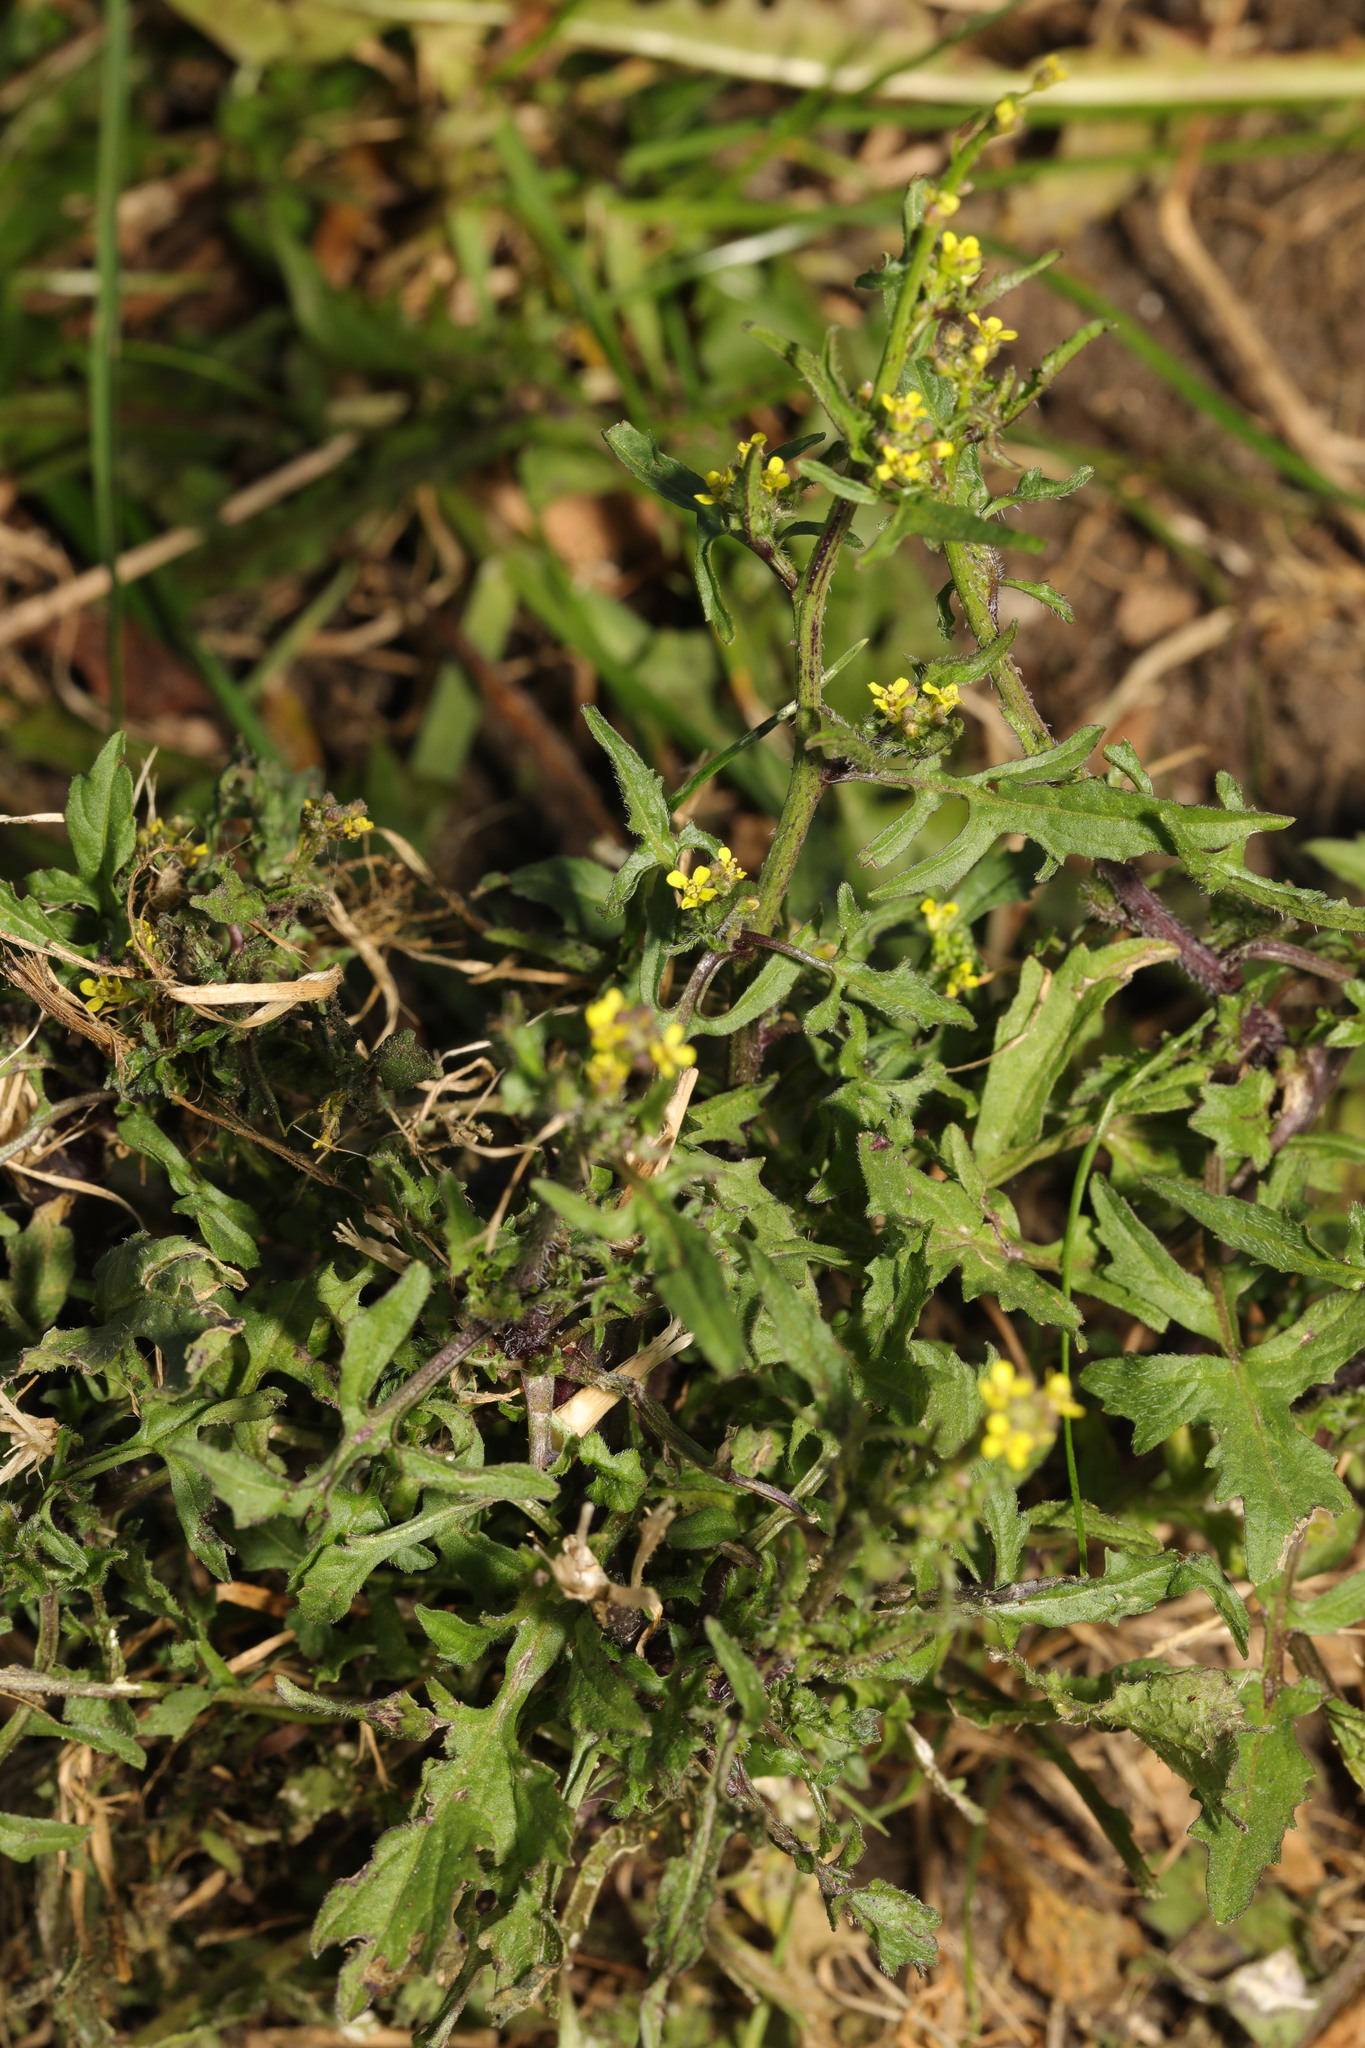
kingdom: Plantae
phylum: Tracheophyta
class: Magnoliopsida
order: Brassicales
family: Brassicaceae
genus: Sisymbrium
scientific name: Sisymbrium officinale
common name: Hedge mustard
